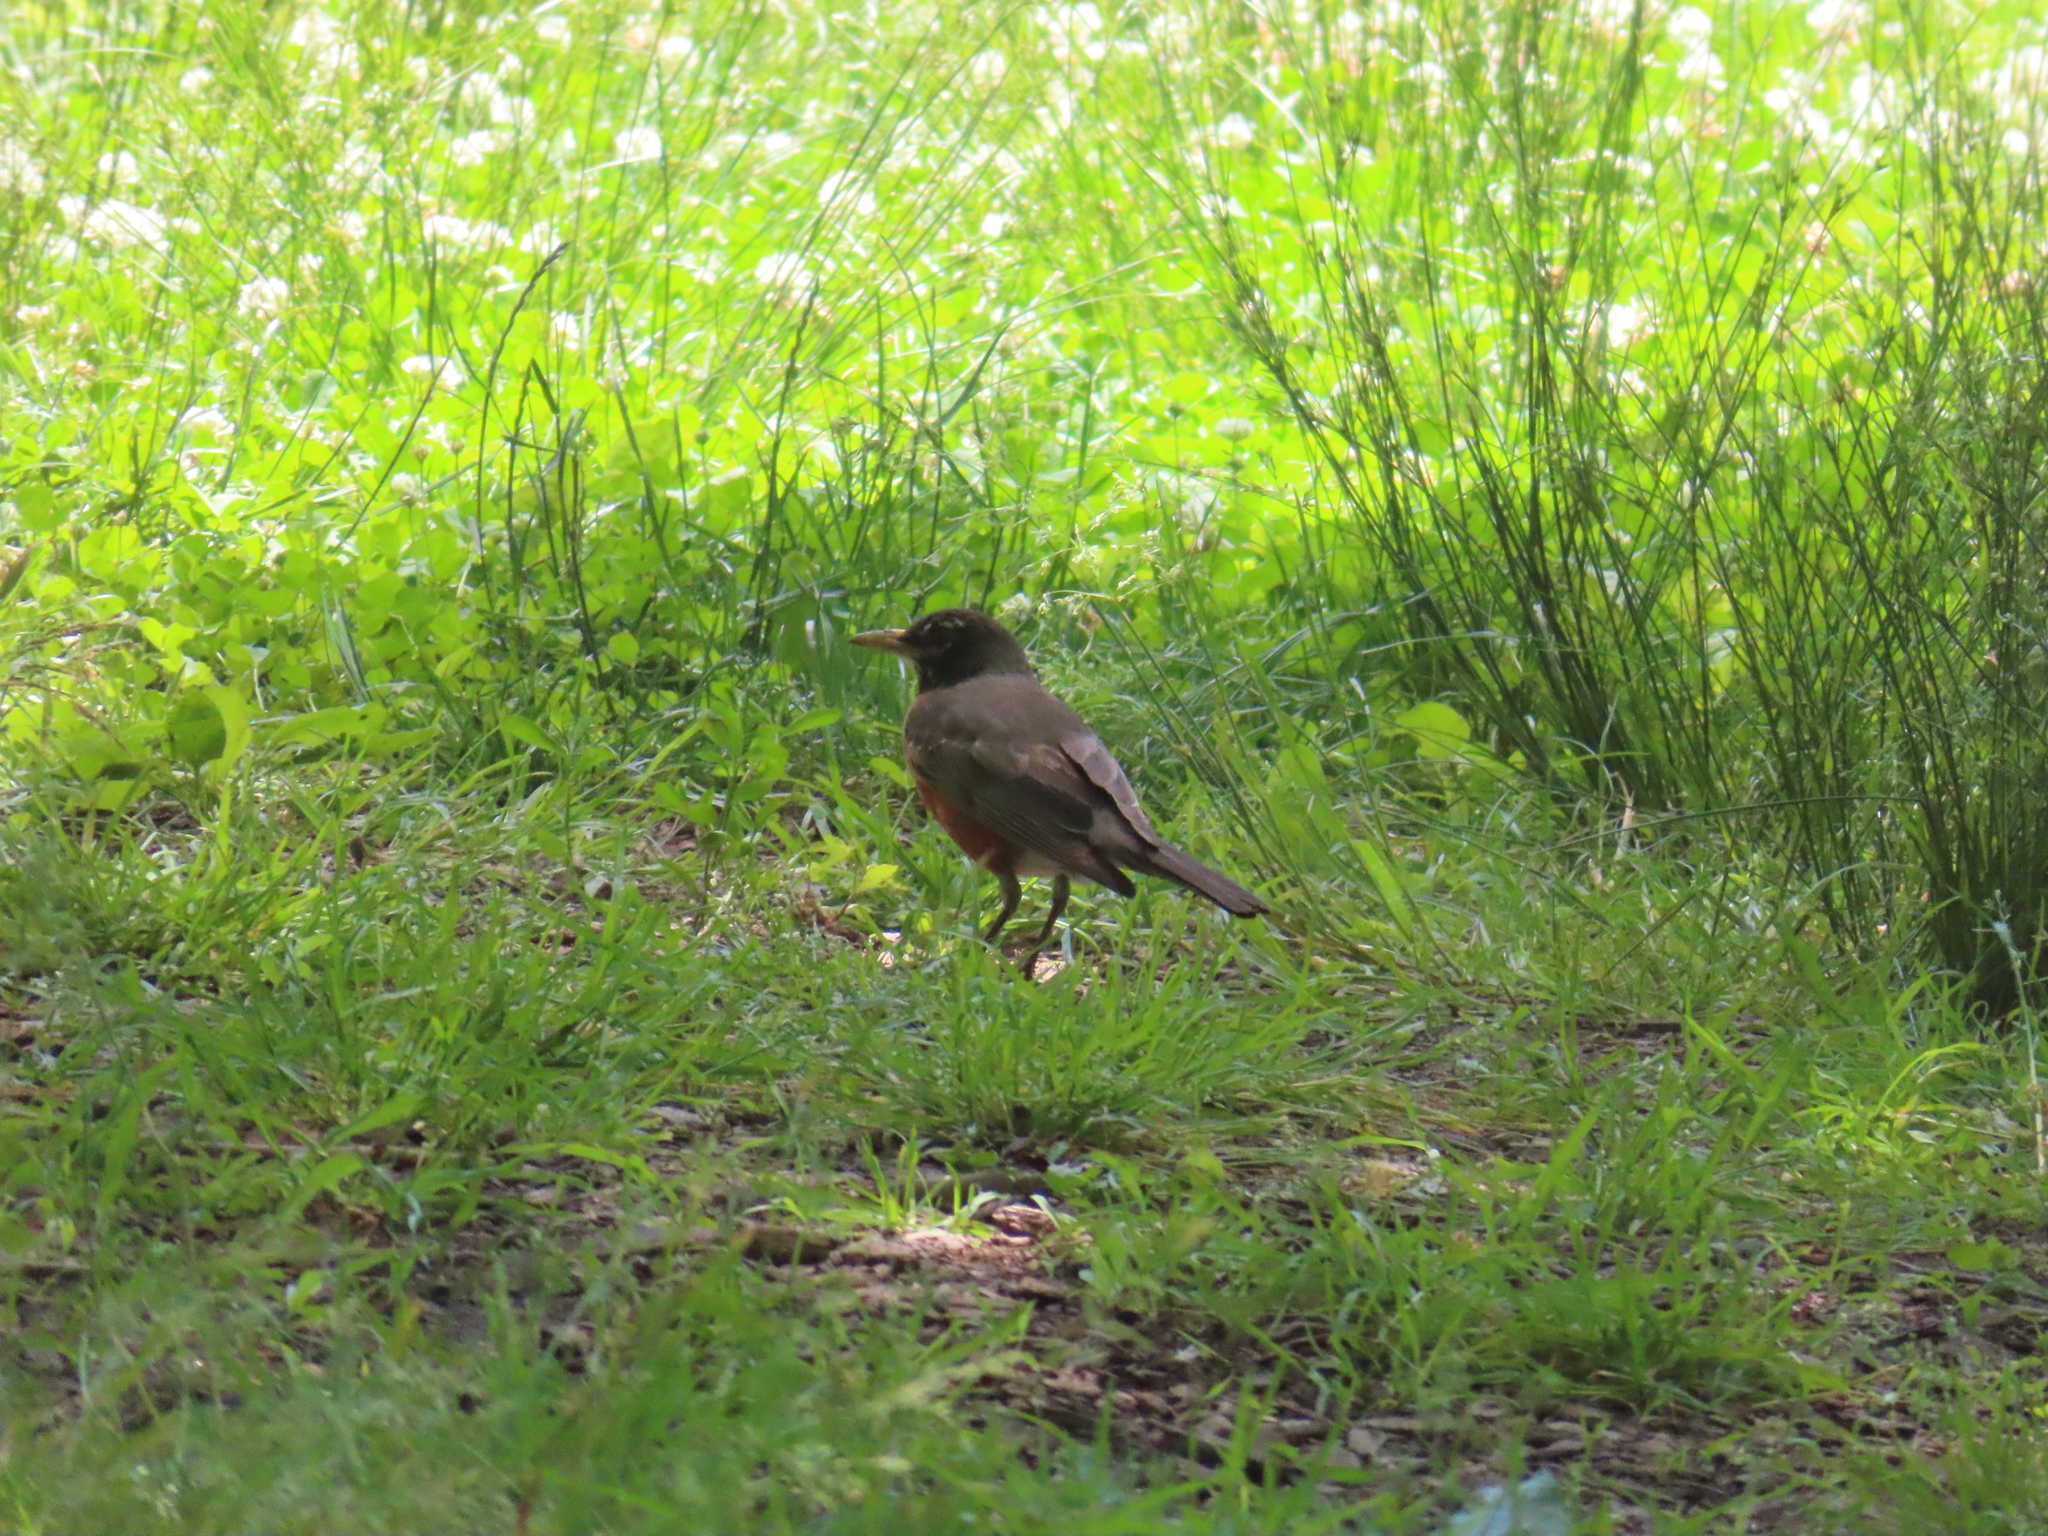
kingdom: Animalia
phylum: Chordata
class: Aves
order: Passeriformes
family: Turdidae
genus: Turdus
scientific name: Turdus migratorius
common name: American robin
